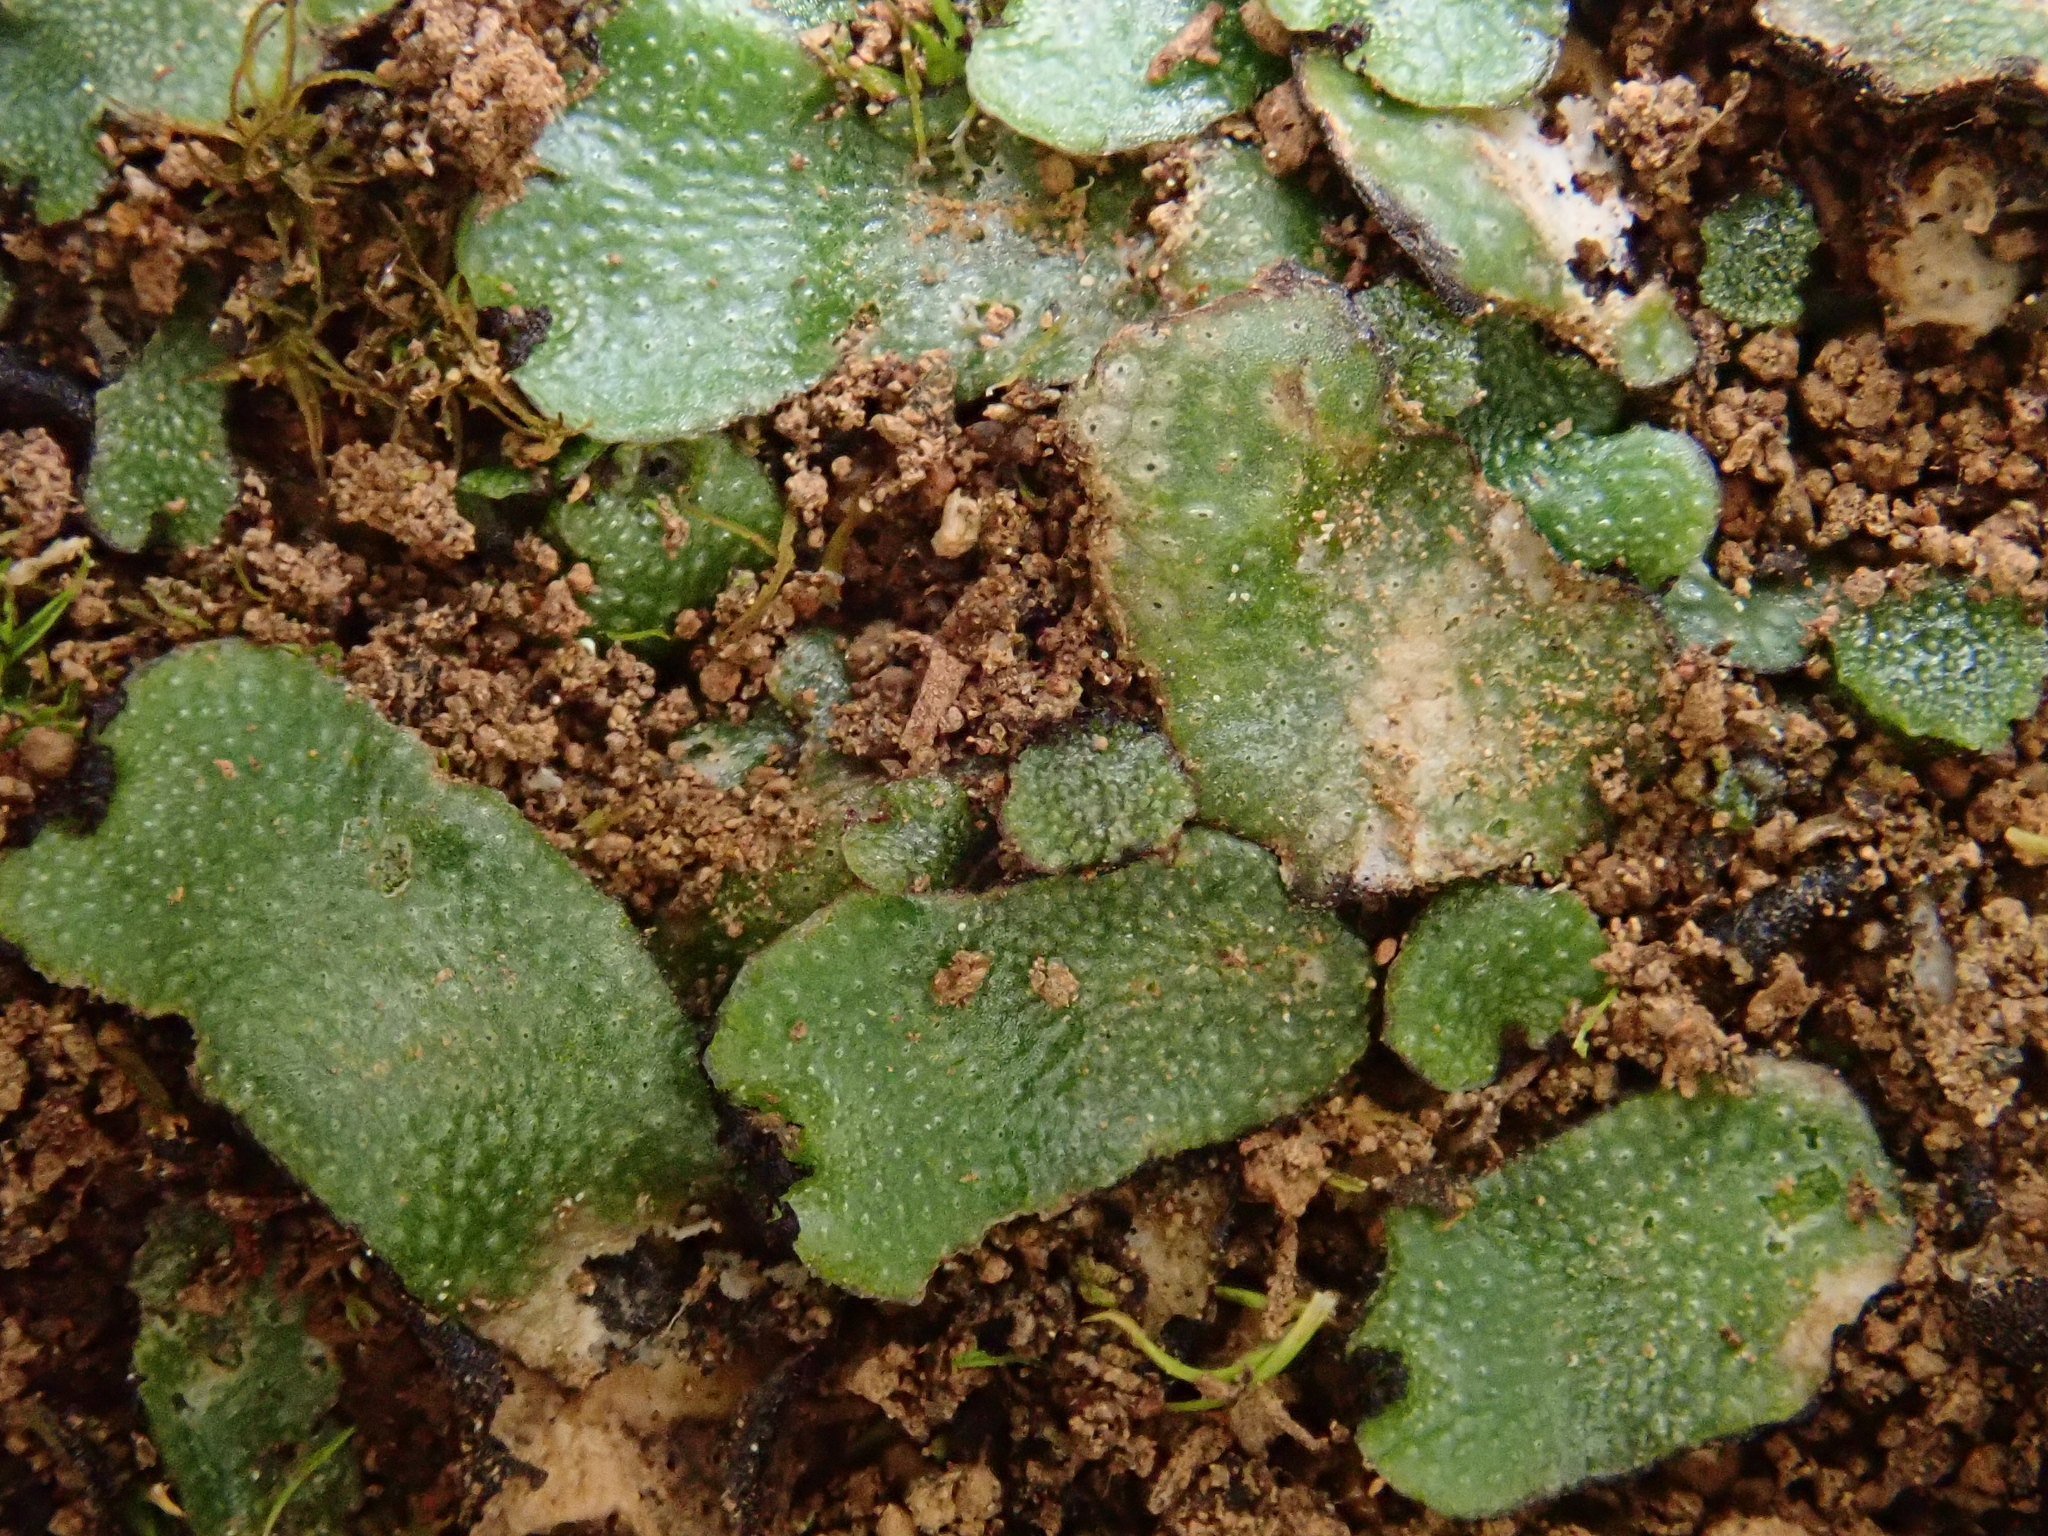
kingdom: Plantae
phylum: Marchantiophyta
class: Marchantiopsida
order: Marchantiales
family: Targioniaceae
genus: Targionia
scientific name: Targionia hypophylla
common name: Orobus-seed liverwort
